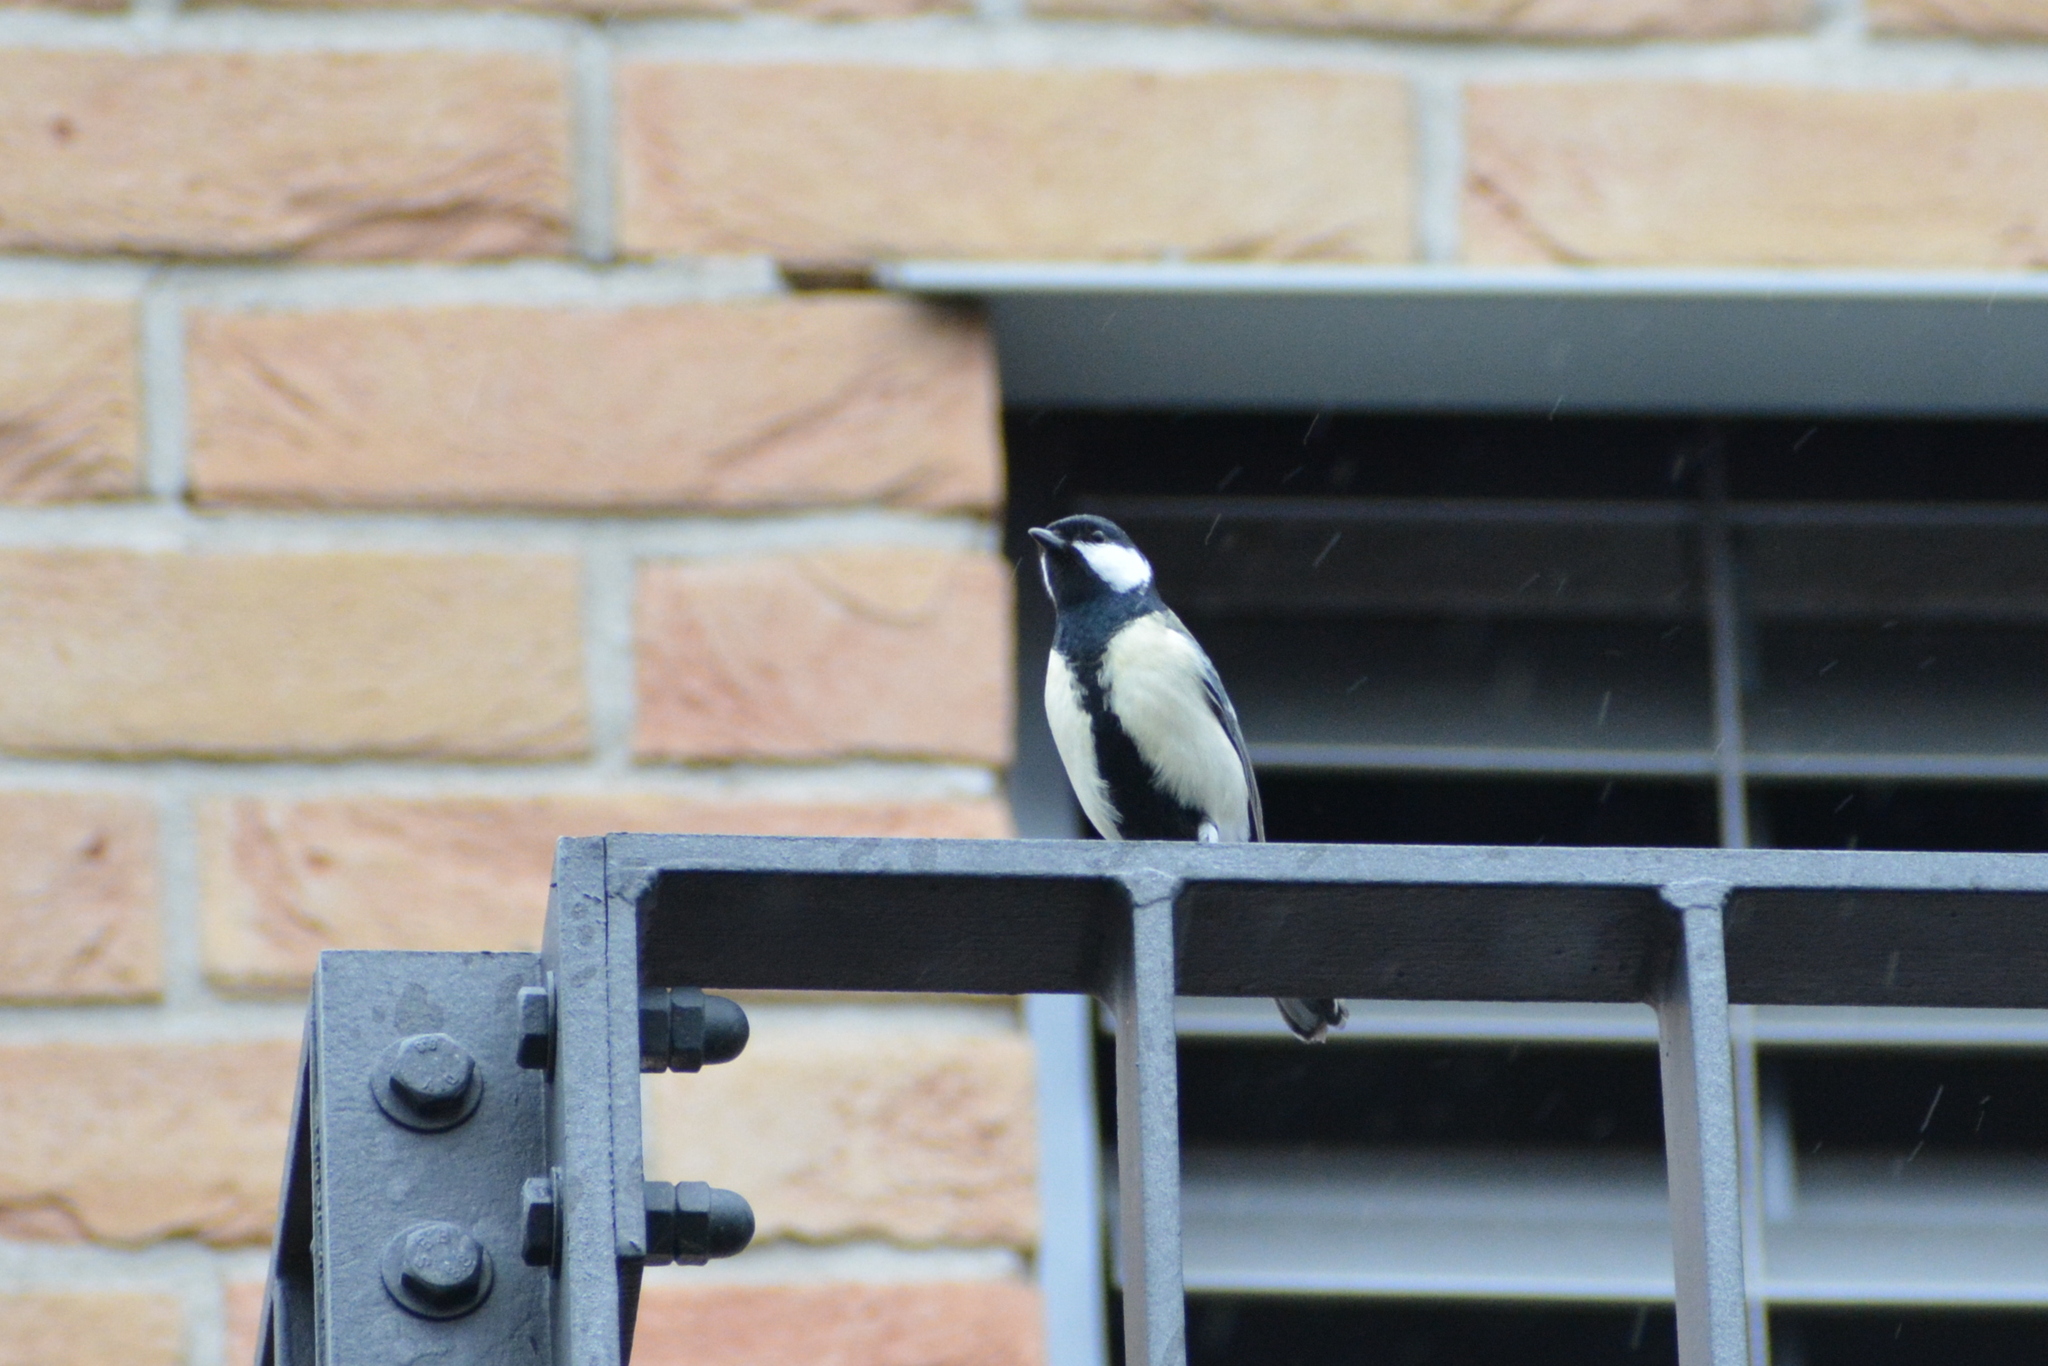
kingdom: Animalia
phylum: Chordata
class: Aves
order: Passeriformes
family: Paridae
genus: Parus
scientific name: Parus major
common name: Great tit
